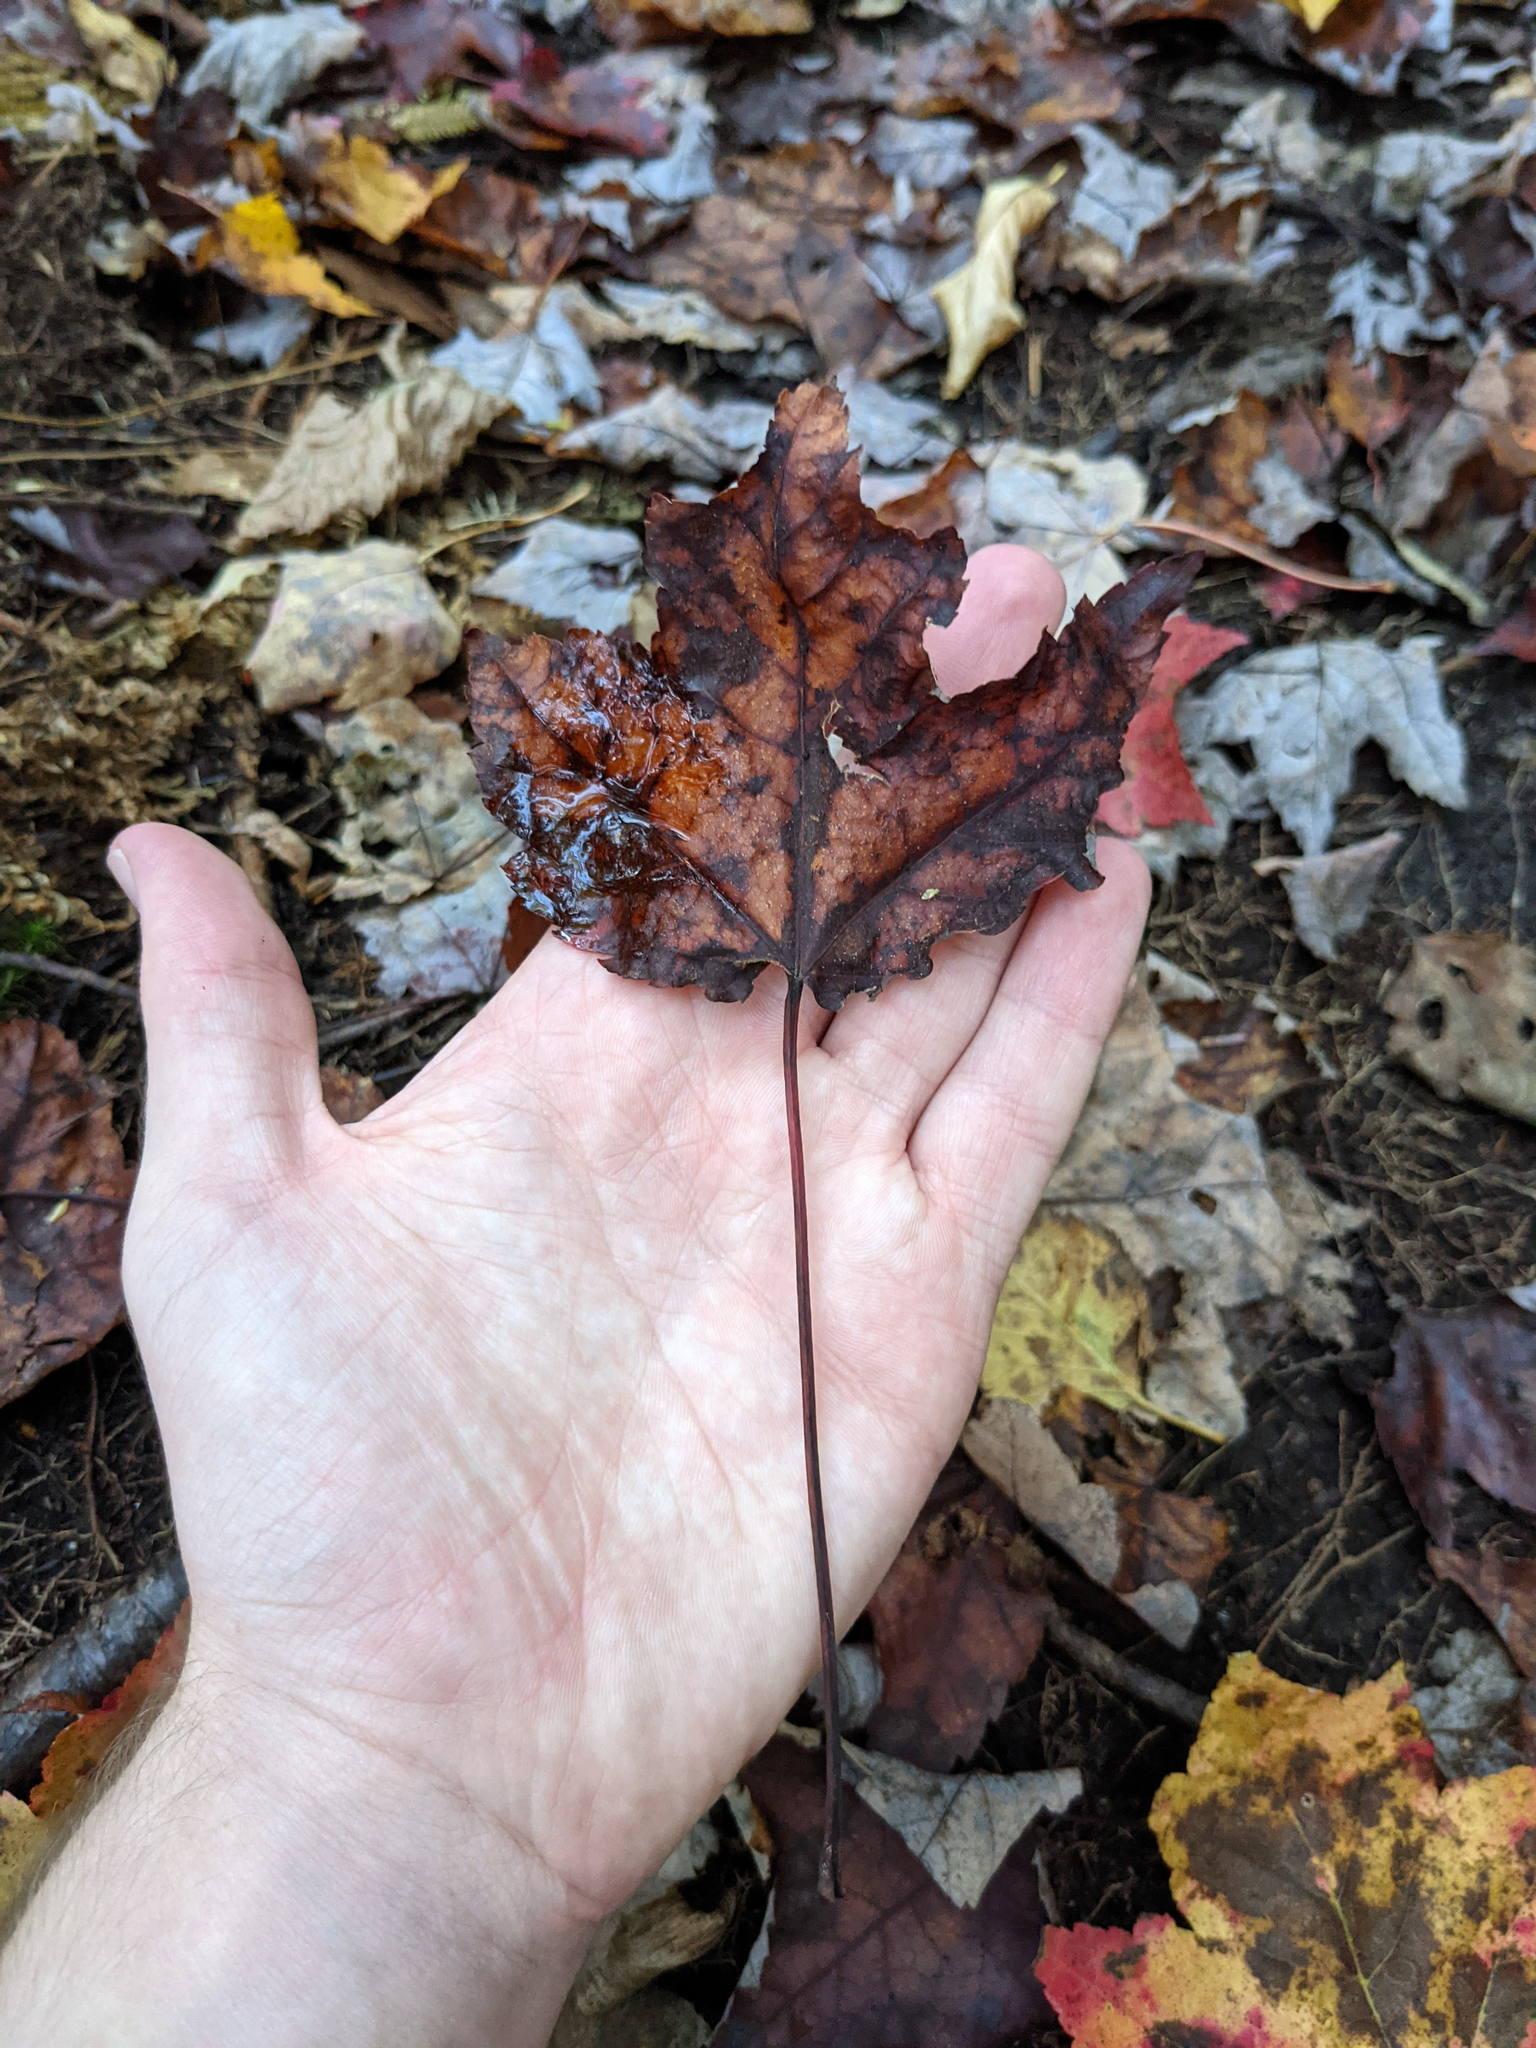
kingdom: Plantae
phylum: Tracheophyta
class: Magnoliopsida
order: Sapindales
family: Sapindaceae
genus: Acer
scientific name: Acer rubrum
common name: Red maple
